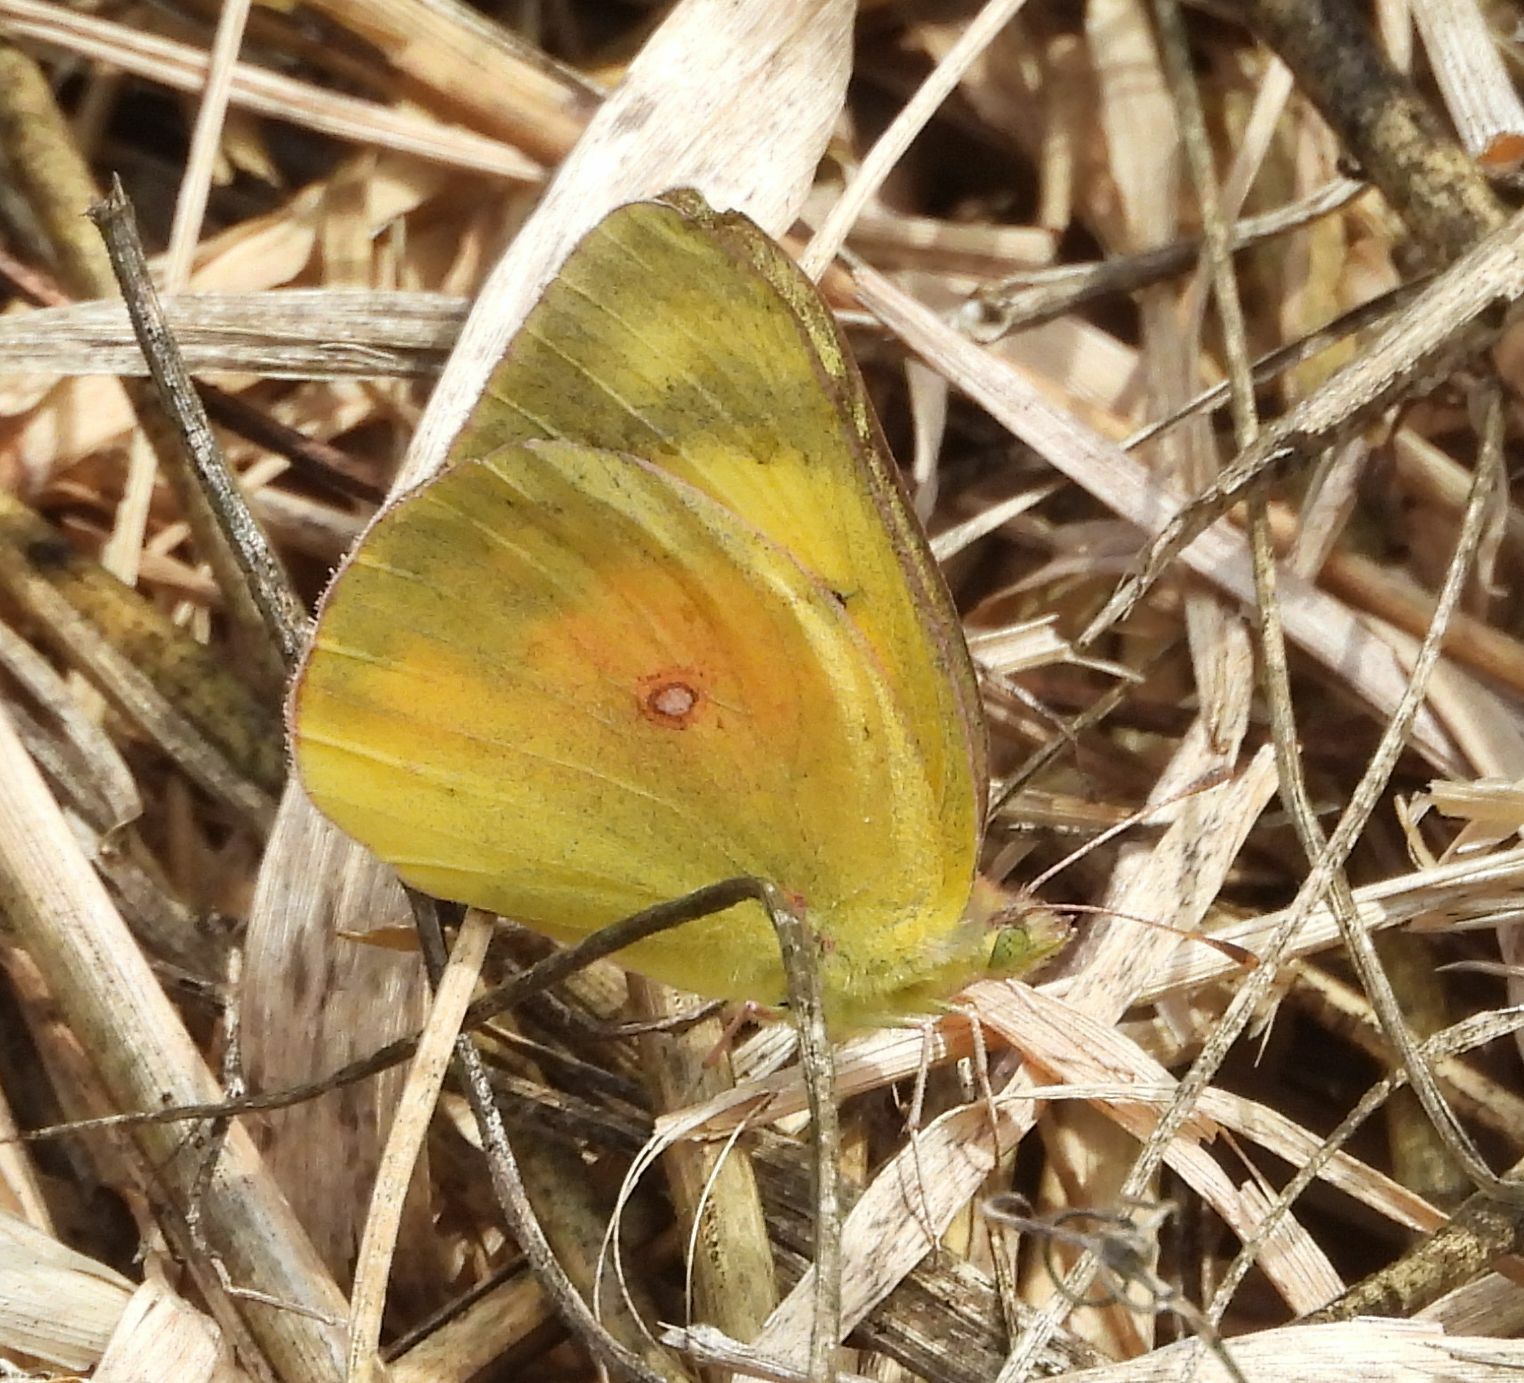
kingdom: Animalia
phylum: Arthropoda
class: Insecta
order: Lepidoptera
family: Pieridae
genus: Colias
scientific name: Colias eurytheme
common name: Alfalfa butterfly
